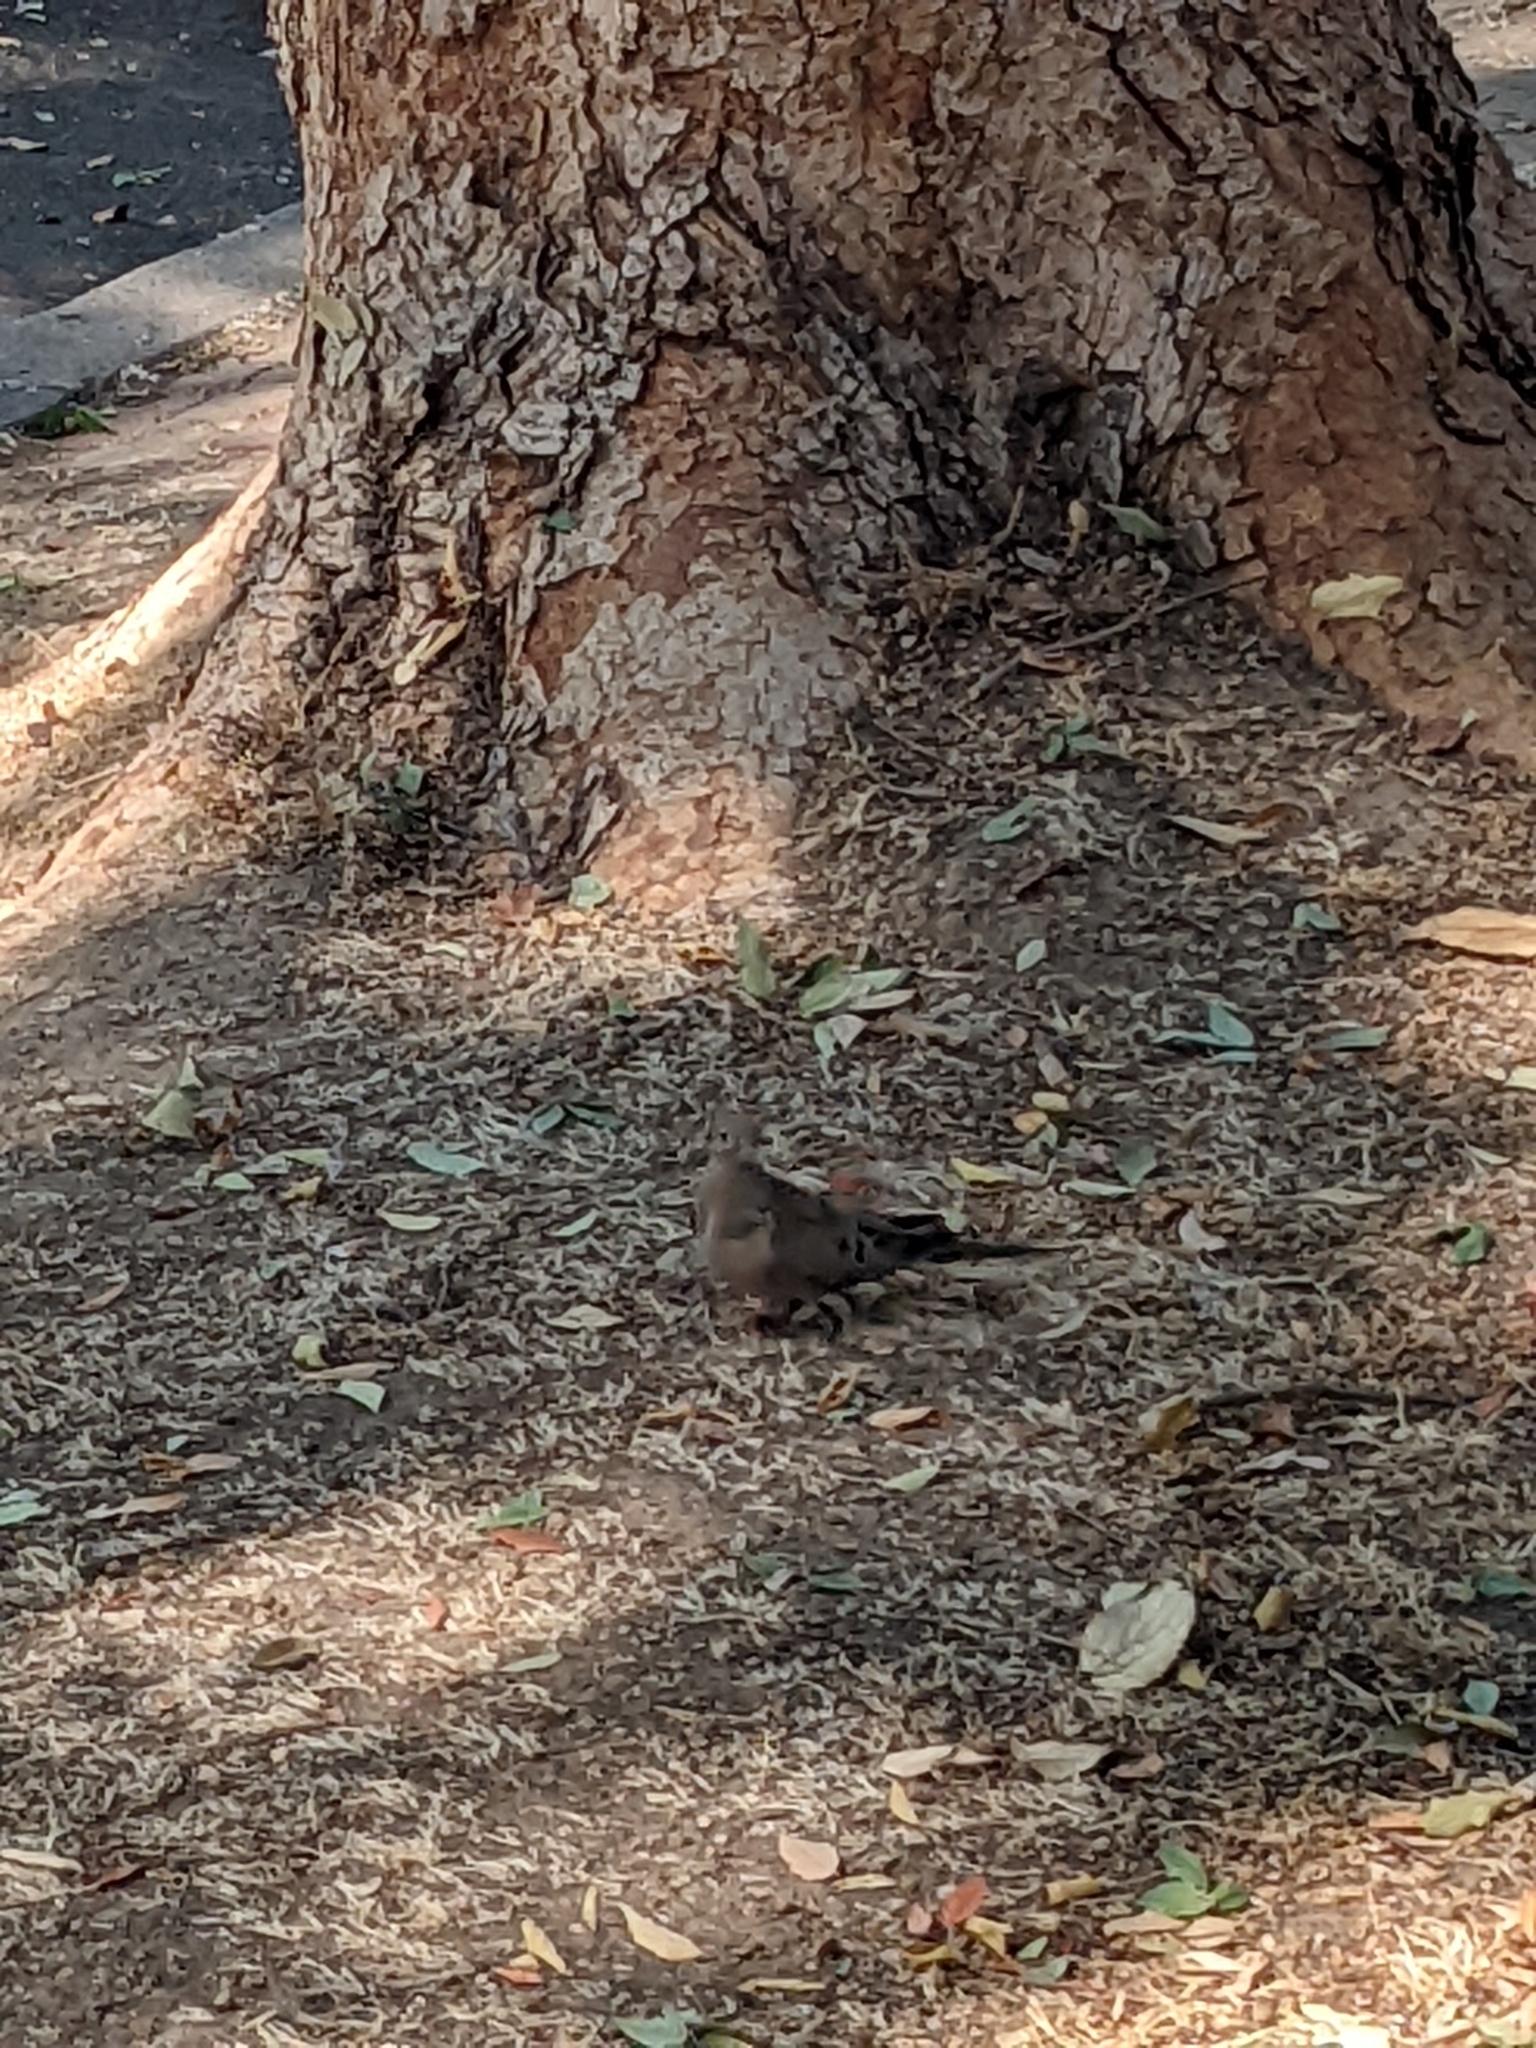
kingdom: Animalia
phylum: Chordata
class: Aves
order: Columbiformes
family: Columbidae
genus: Zenaida
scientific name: Zenaida macroura
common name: Mourning dove
